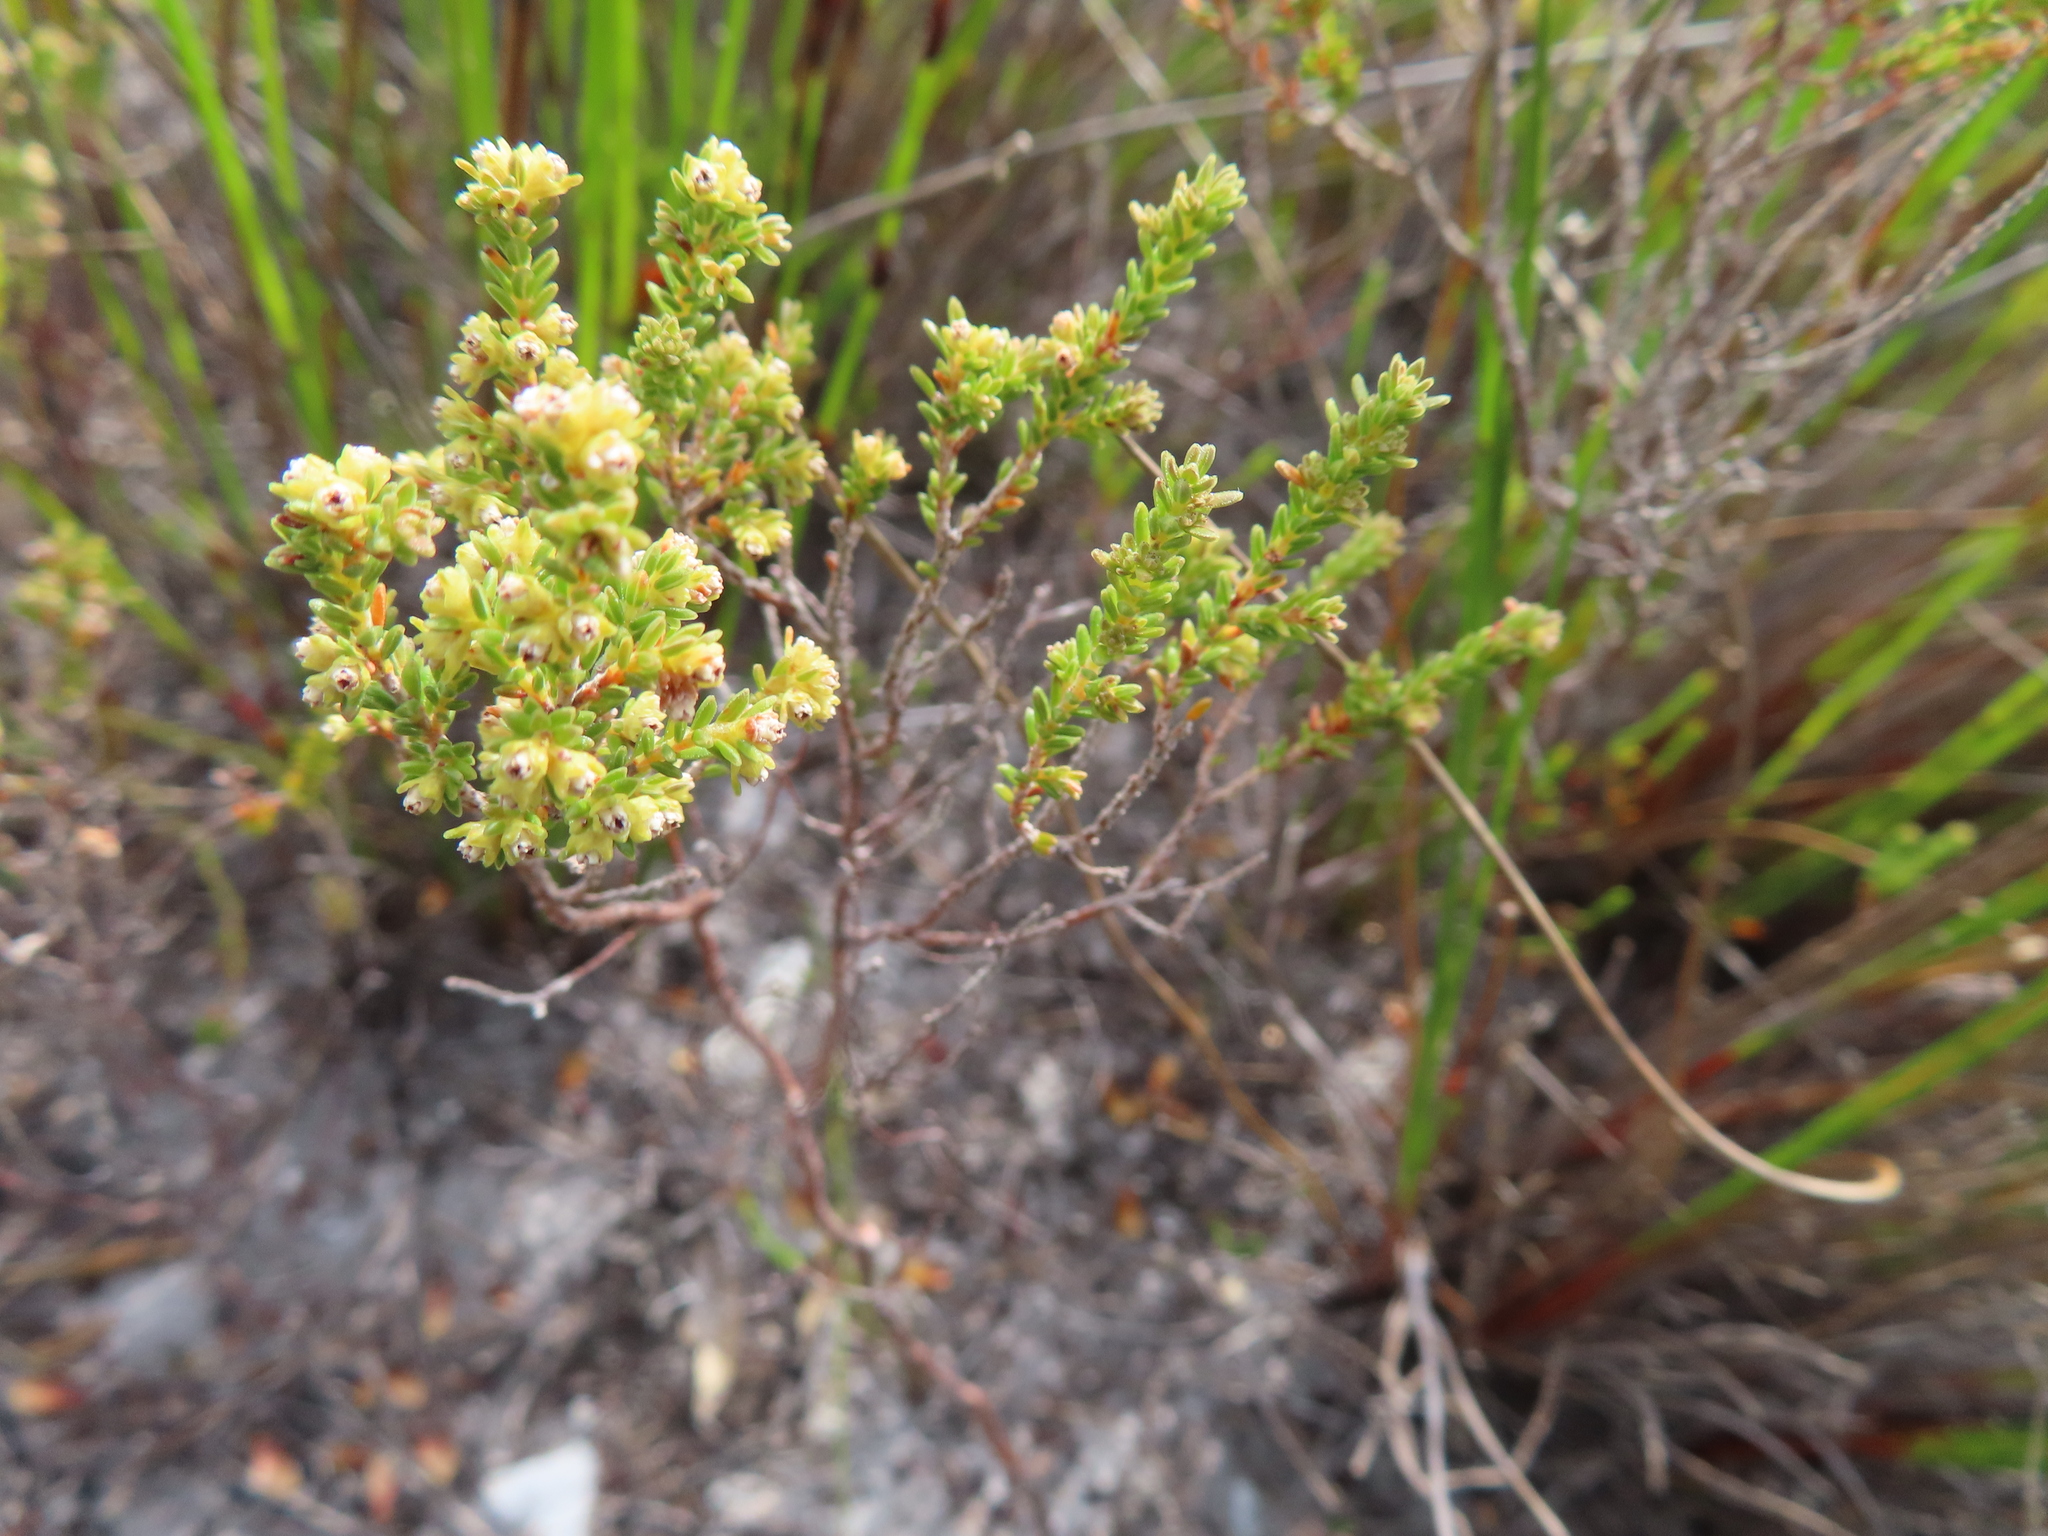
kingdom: Plantae
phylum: Tracheophyta
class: Magnoliopsida
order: Ericales
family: Ericaceae
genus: Erica
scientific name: Erica serrata
